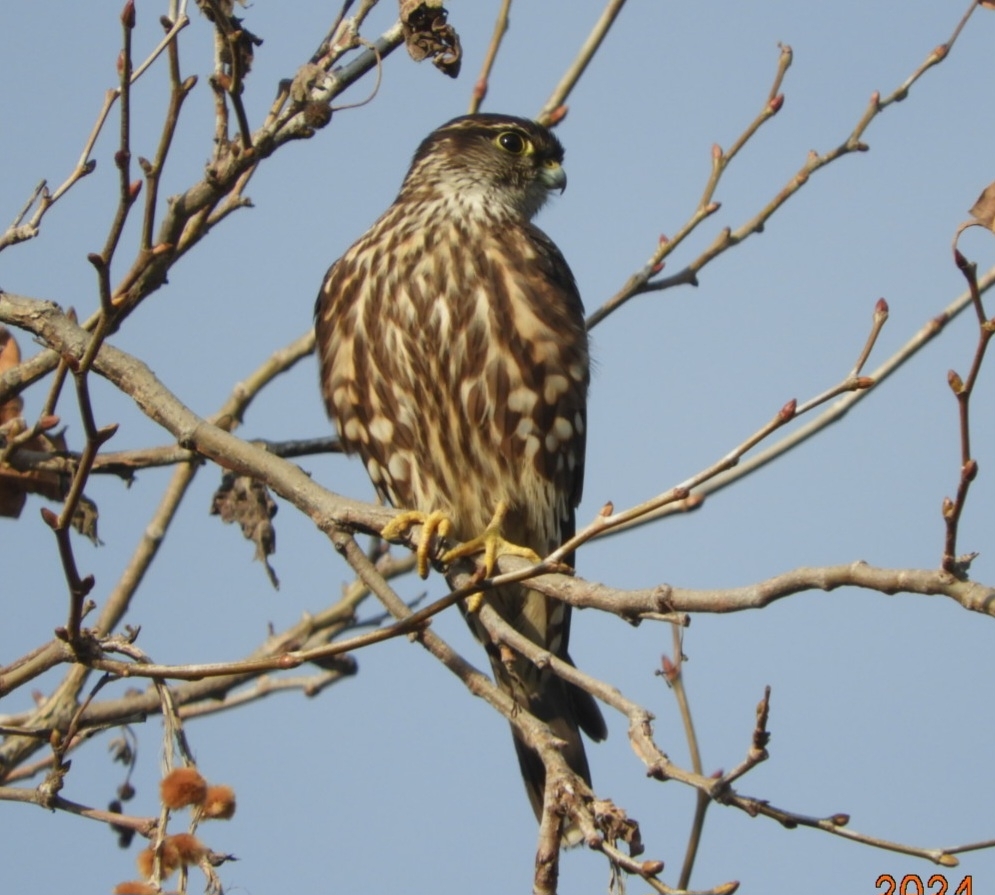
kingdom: Animalia
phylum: Chordata
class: Aves
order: Falconiformes
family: Falconidae
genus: Falco
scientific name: Falco columbarius
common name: Merlin
